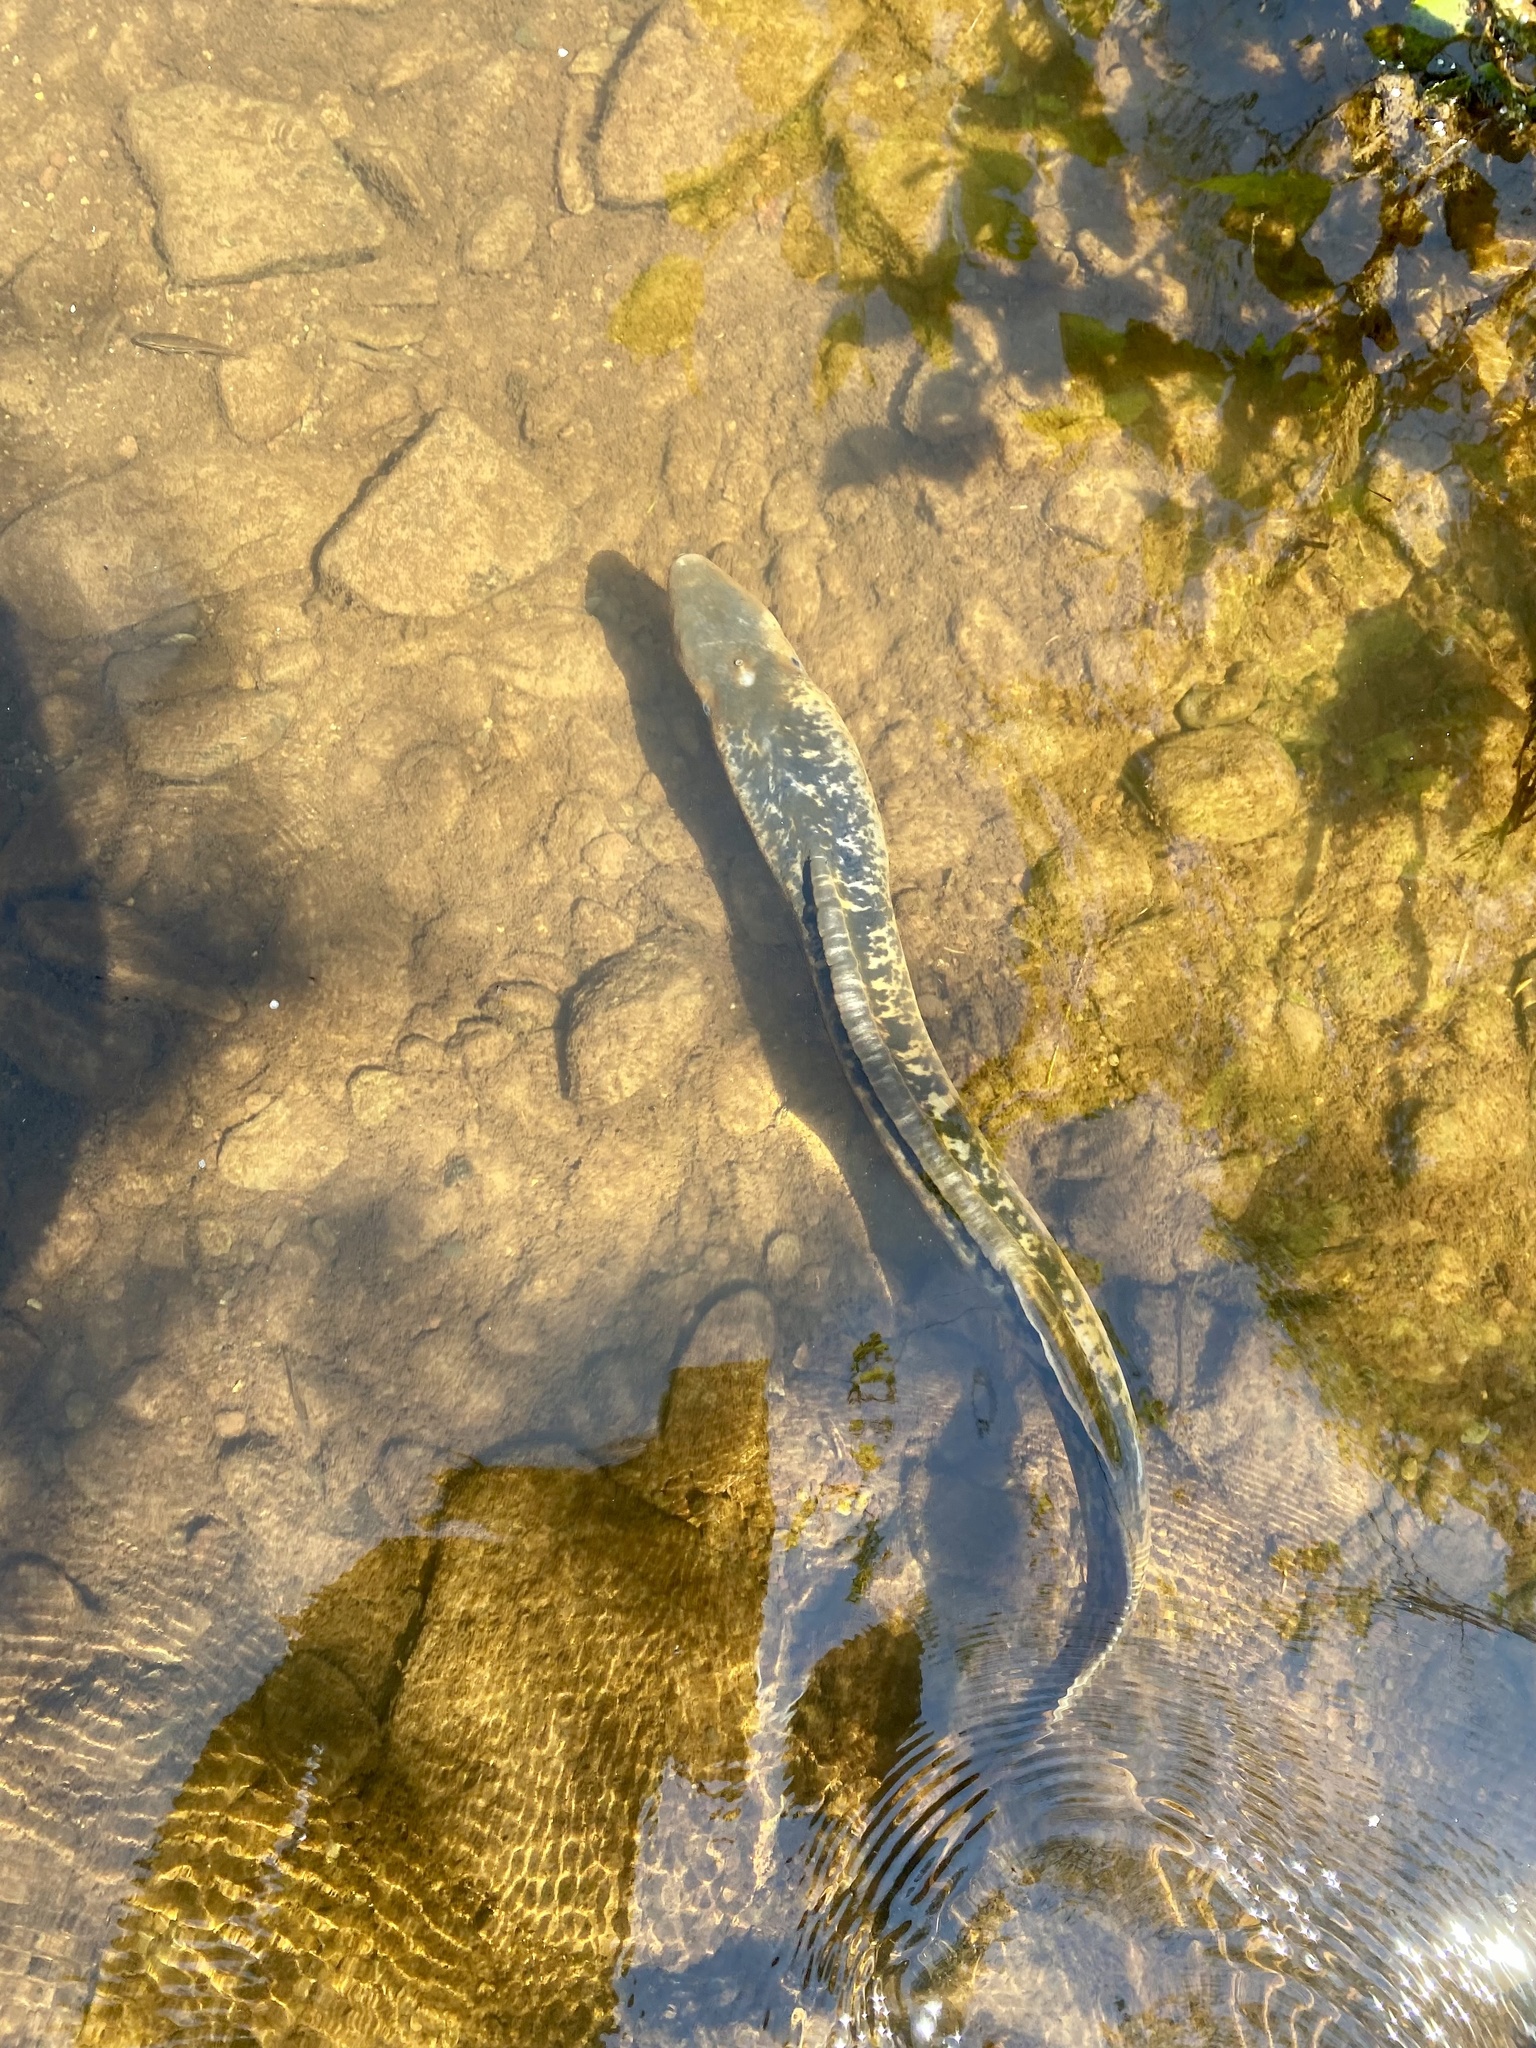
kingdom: Animalia
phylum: Chordata
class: Petromyzonti
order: Petromyzontiformes
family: Petromyzontidae
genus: Petromyzon
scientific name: Petromyzon marinus
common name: Sea lamprey
